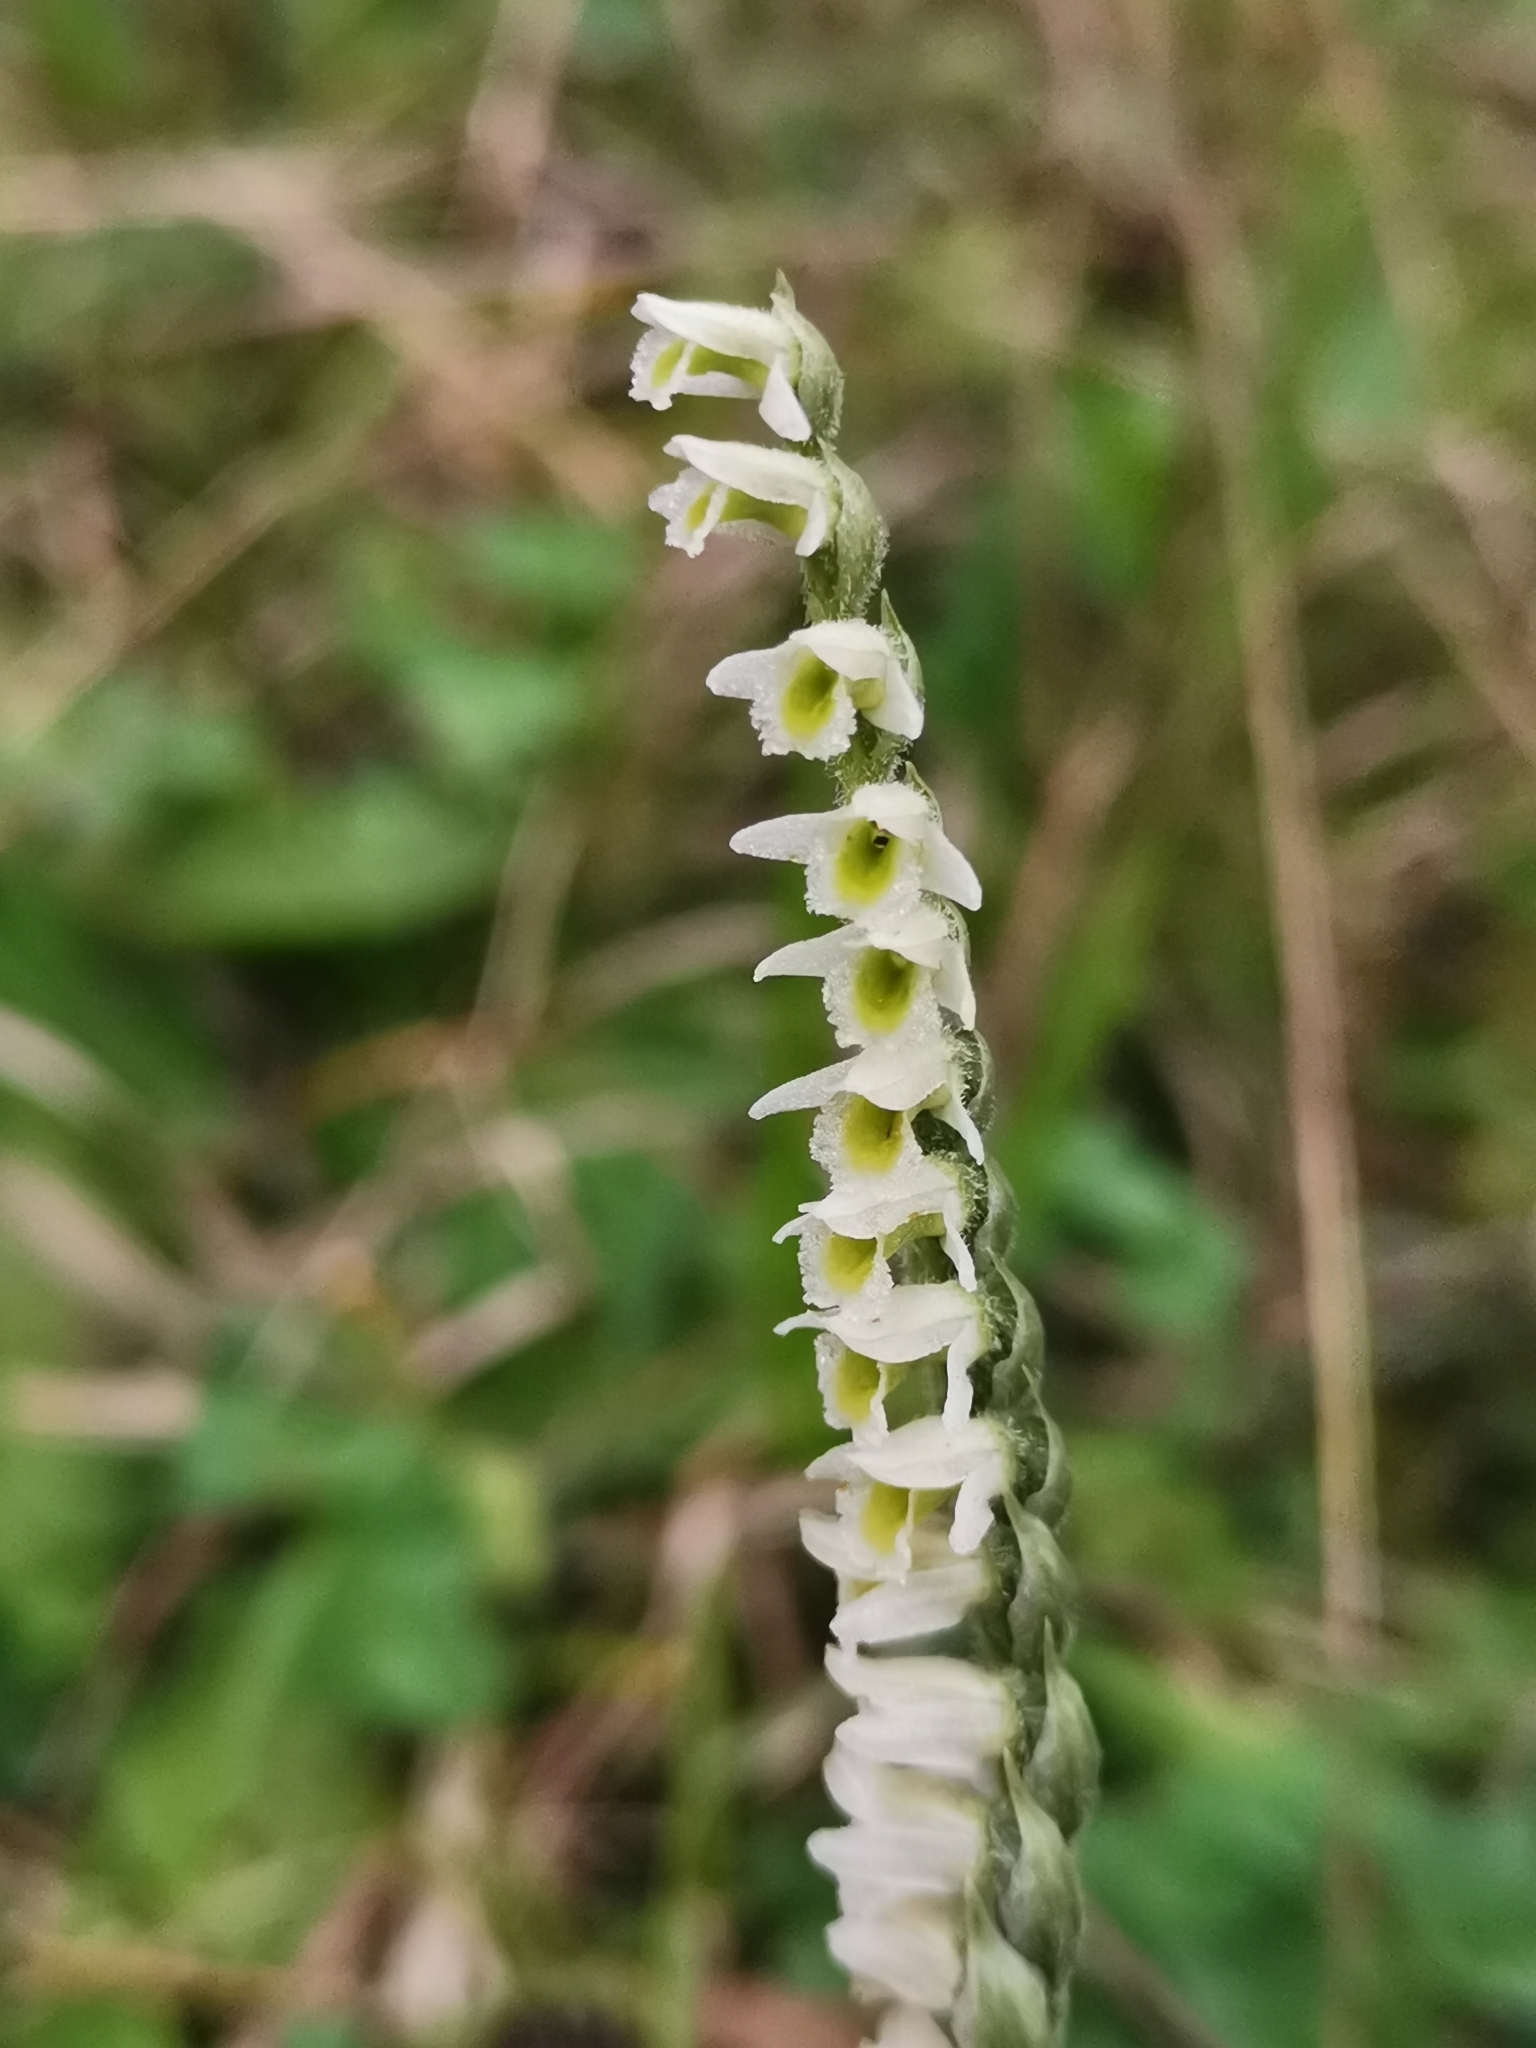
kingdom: Plantae
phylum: Tracheophyta
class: Liliopsida
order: Asparagales
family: Orchidaceae
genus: Spiranthes
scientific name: Spiranthes spiralis
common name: Autumn lady's-tresses
